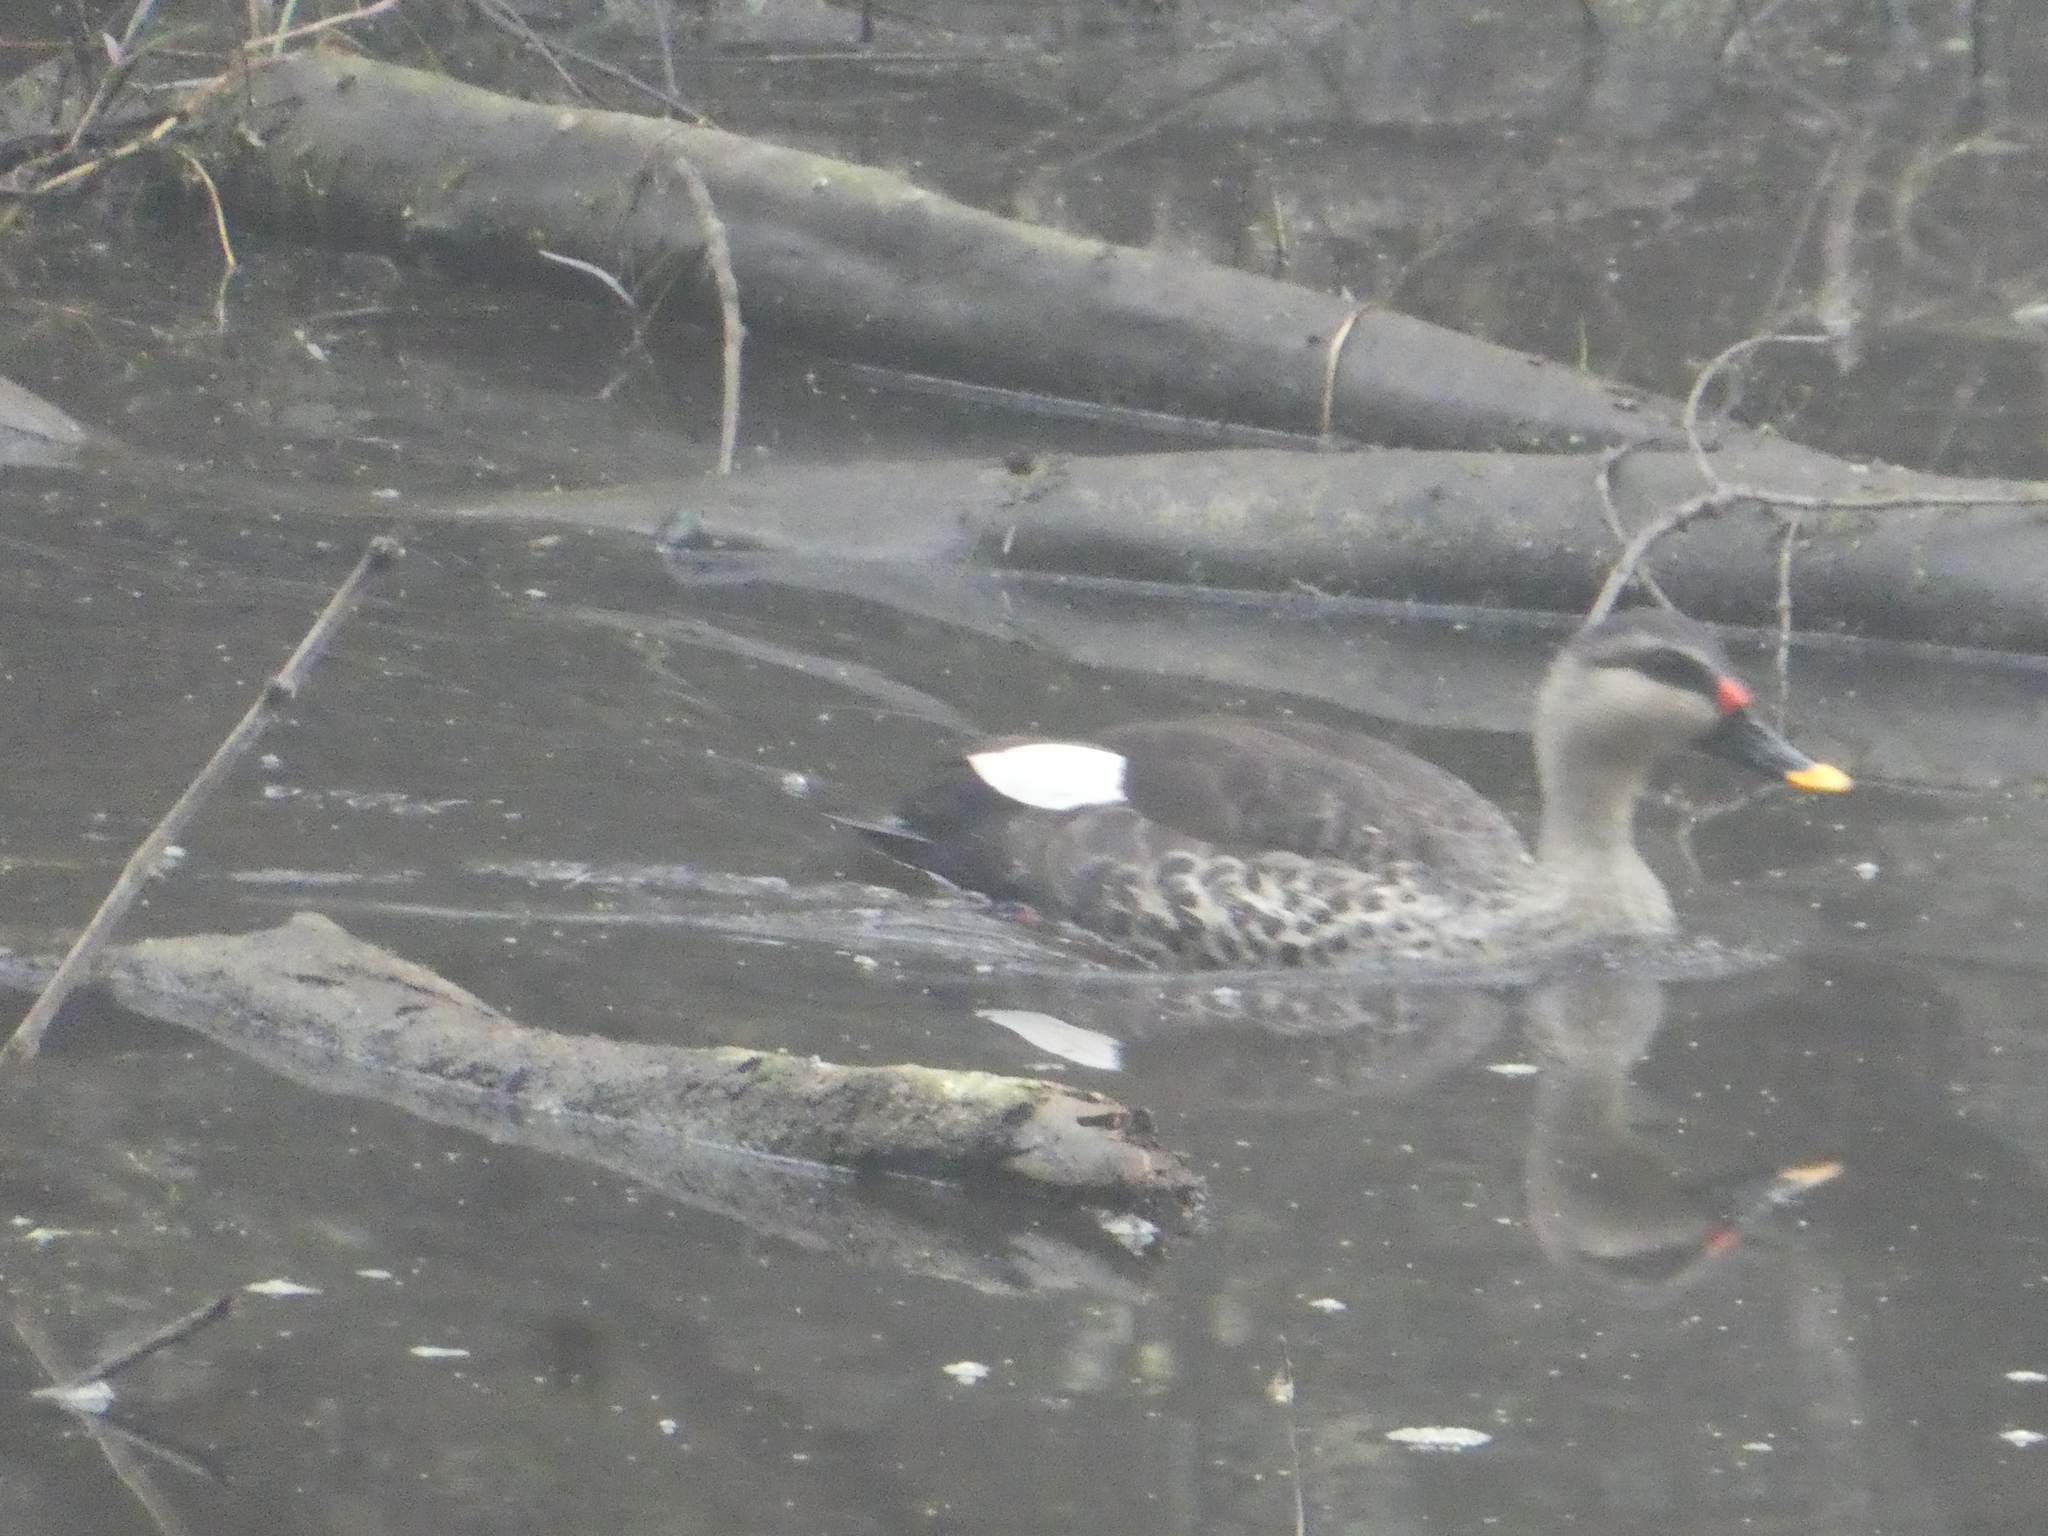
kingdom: Animalia
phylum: Chordata
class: Aves
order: Anseriformes
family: Anatidae
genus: Anas
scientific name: Anas poecilorhyncha
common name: Indian spot-billed duck
